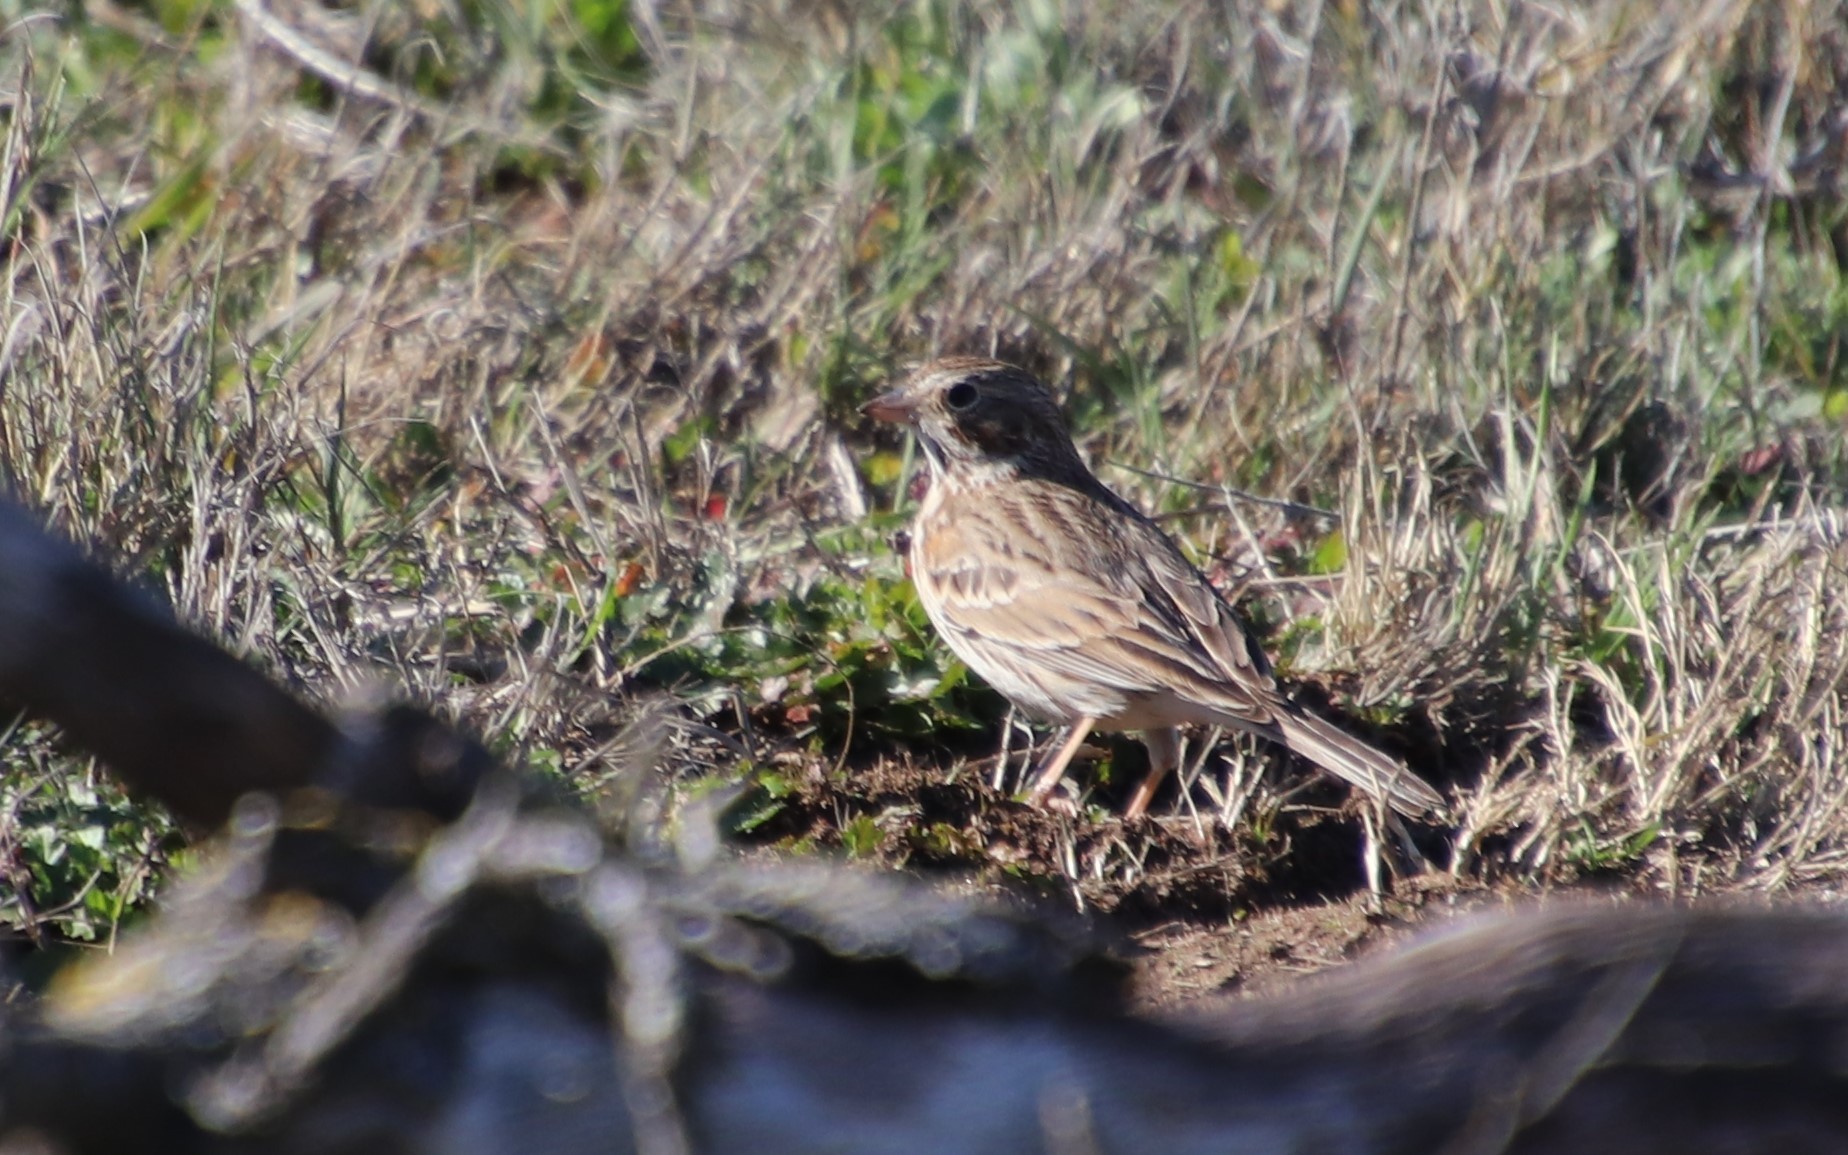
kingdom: Animalia
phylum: Chordata
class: Aves
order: Passeriformes
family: Passerellidae
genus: Pooecetes
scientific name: Pooecetes gramineus
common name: Vesper sparrow
